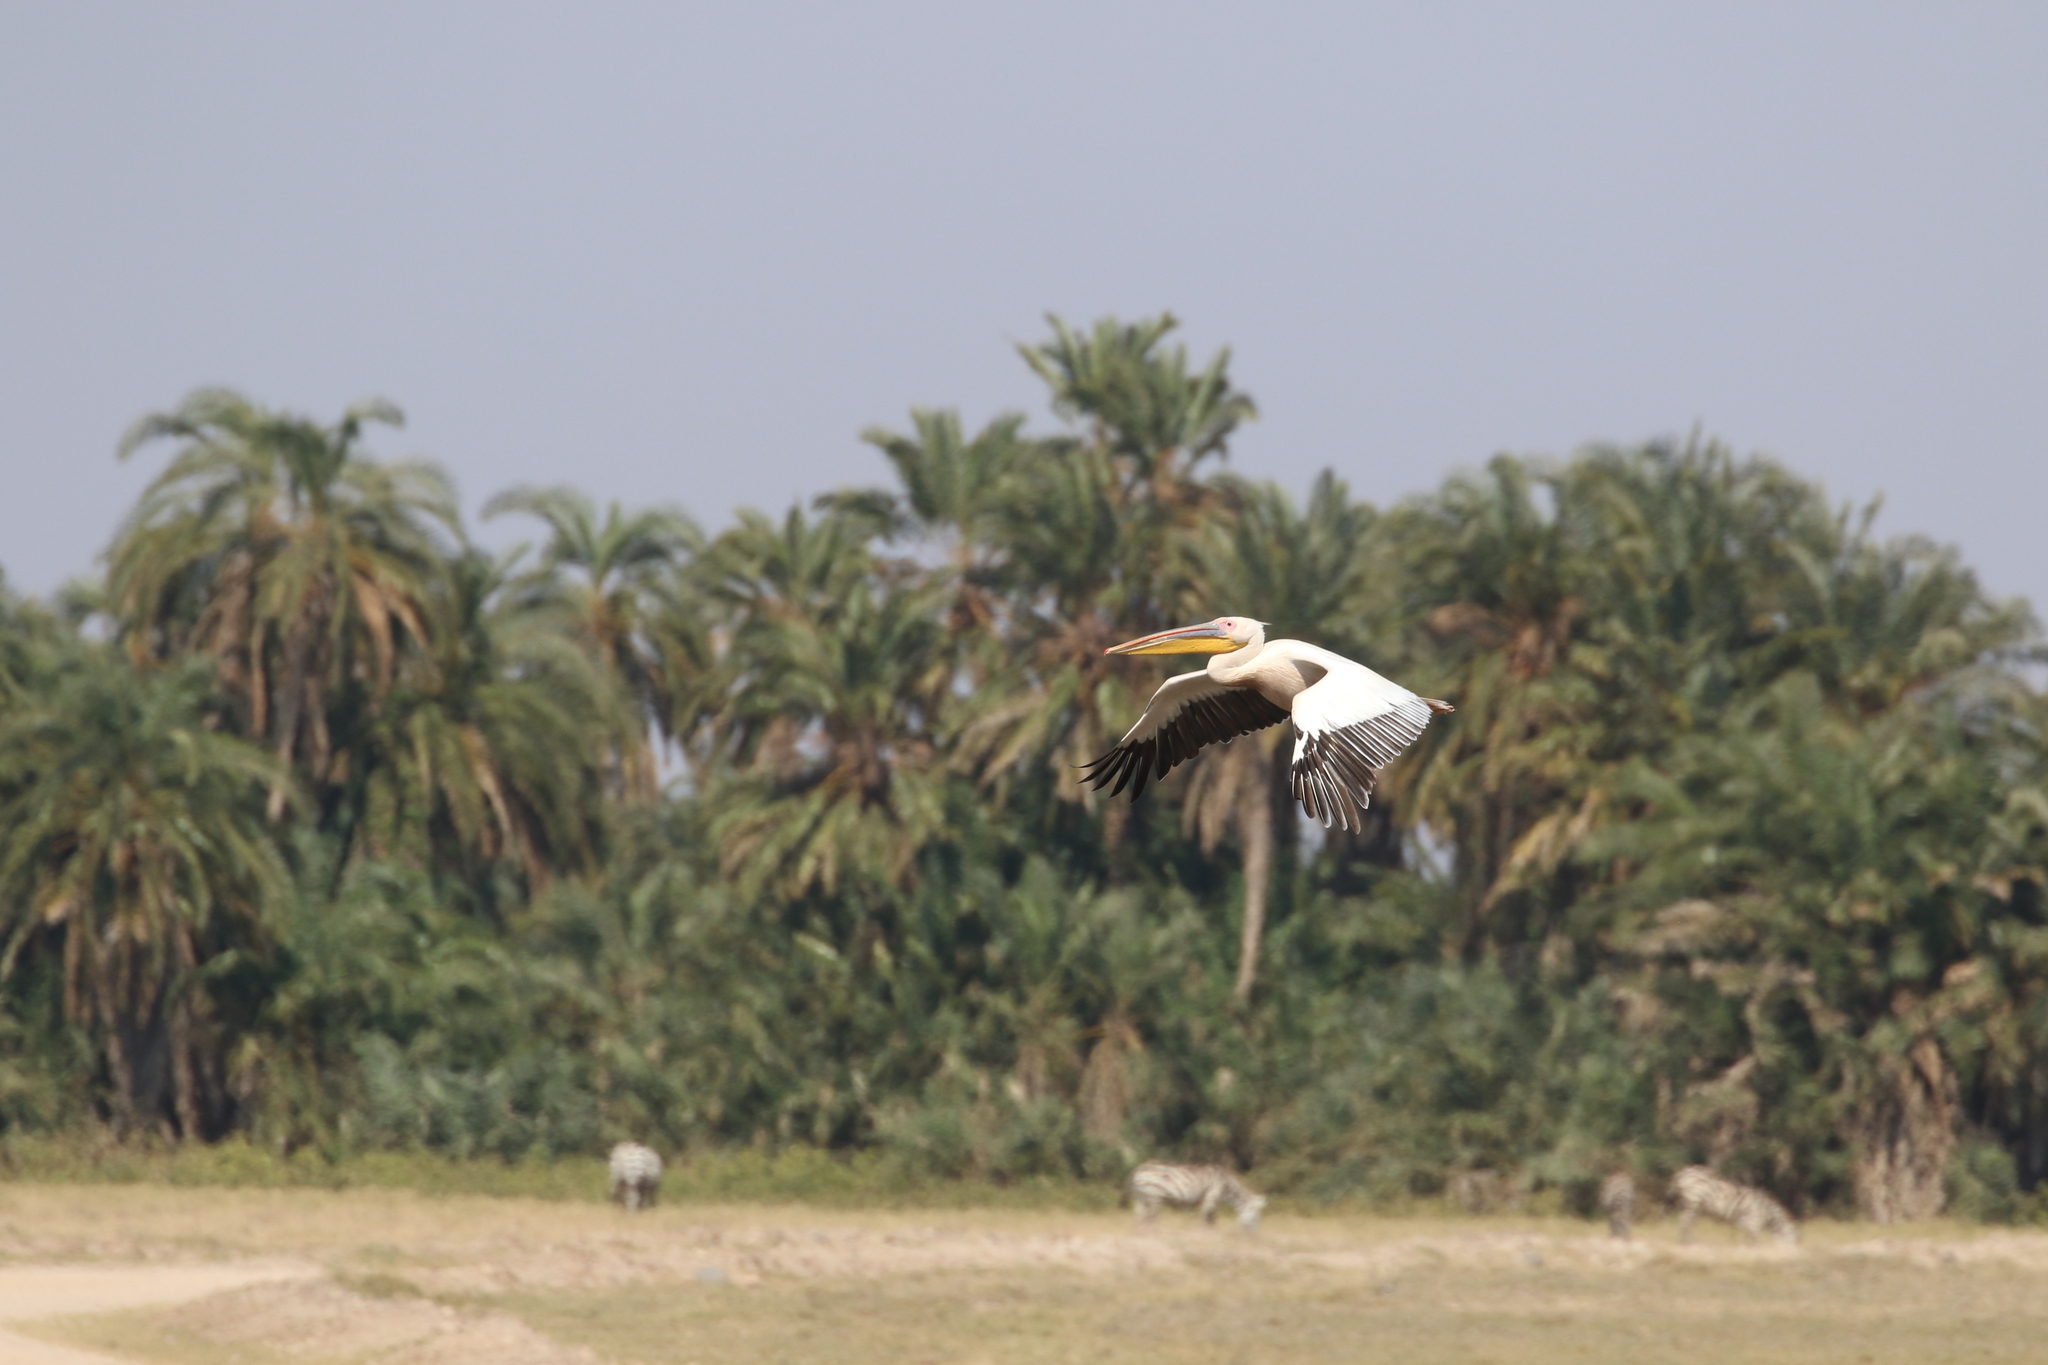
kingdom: Animalia
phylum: Chordata
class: Aves
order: Pelecaniformes
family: Pelecanidae
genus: Pelecanus
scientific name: Pelecanus onocrotalus
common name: Great white pelican
